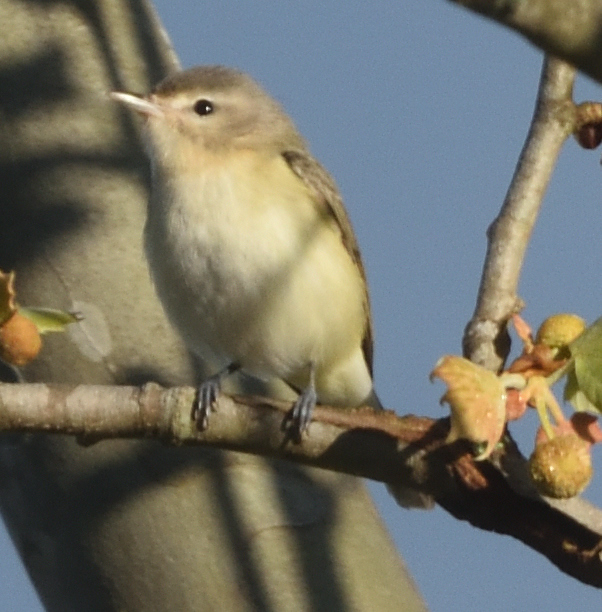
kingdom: Animalia
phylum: Chordata
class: Aves
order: Passeriformes
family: Vireonidae
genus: Vireo
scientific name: Vireo gilvus
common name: Warbling vireo
